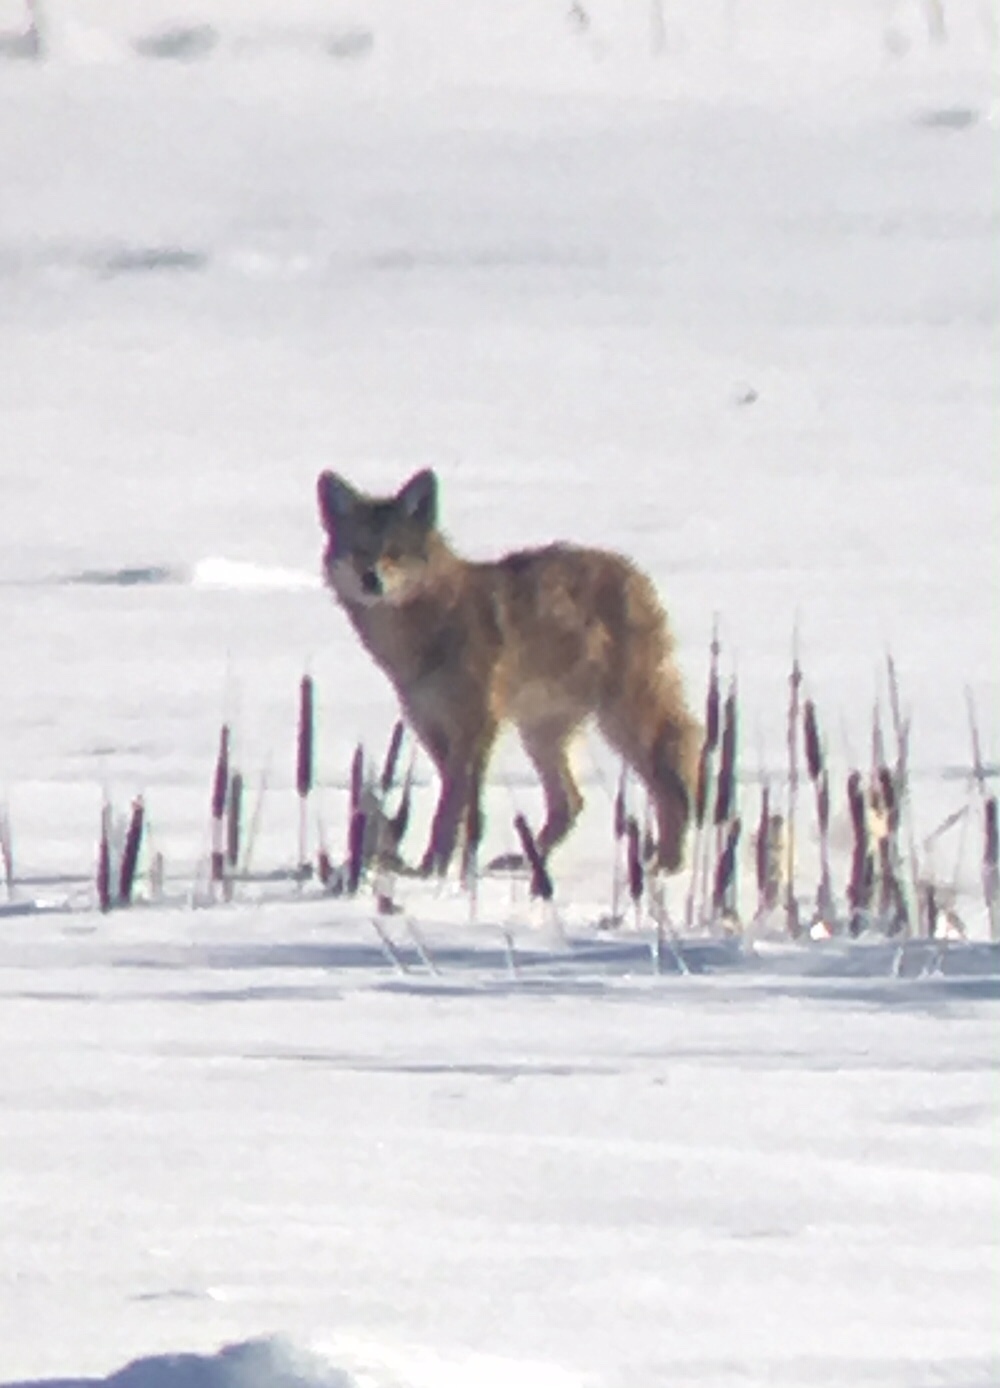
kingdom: Animalia
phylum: Chordata
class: Mammalia
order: Carnivora
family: Canidae
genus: Canis
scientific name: Canis latrans
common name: Coyote
